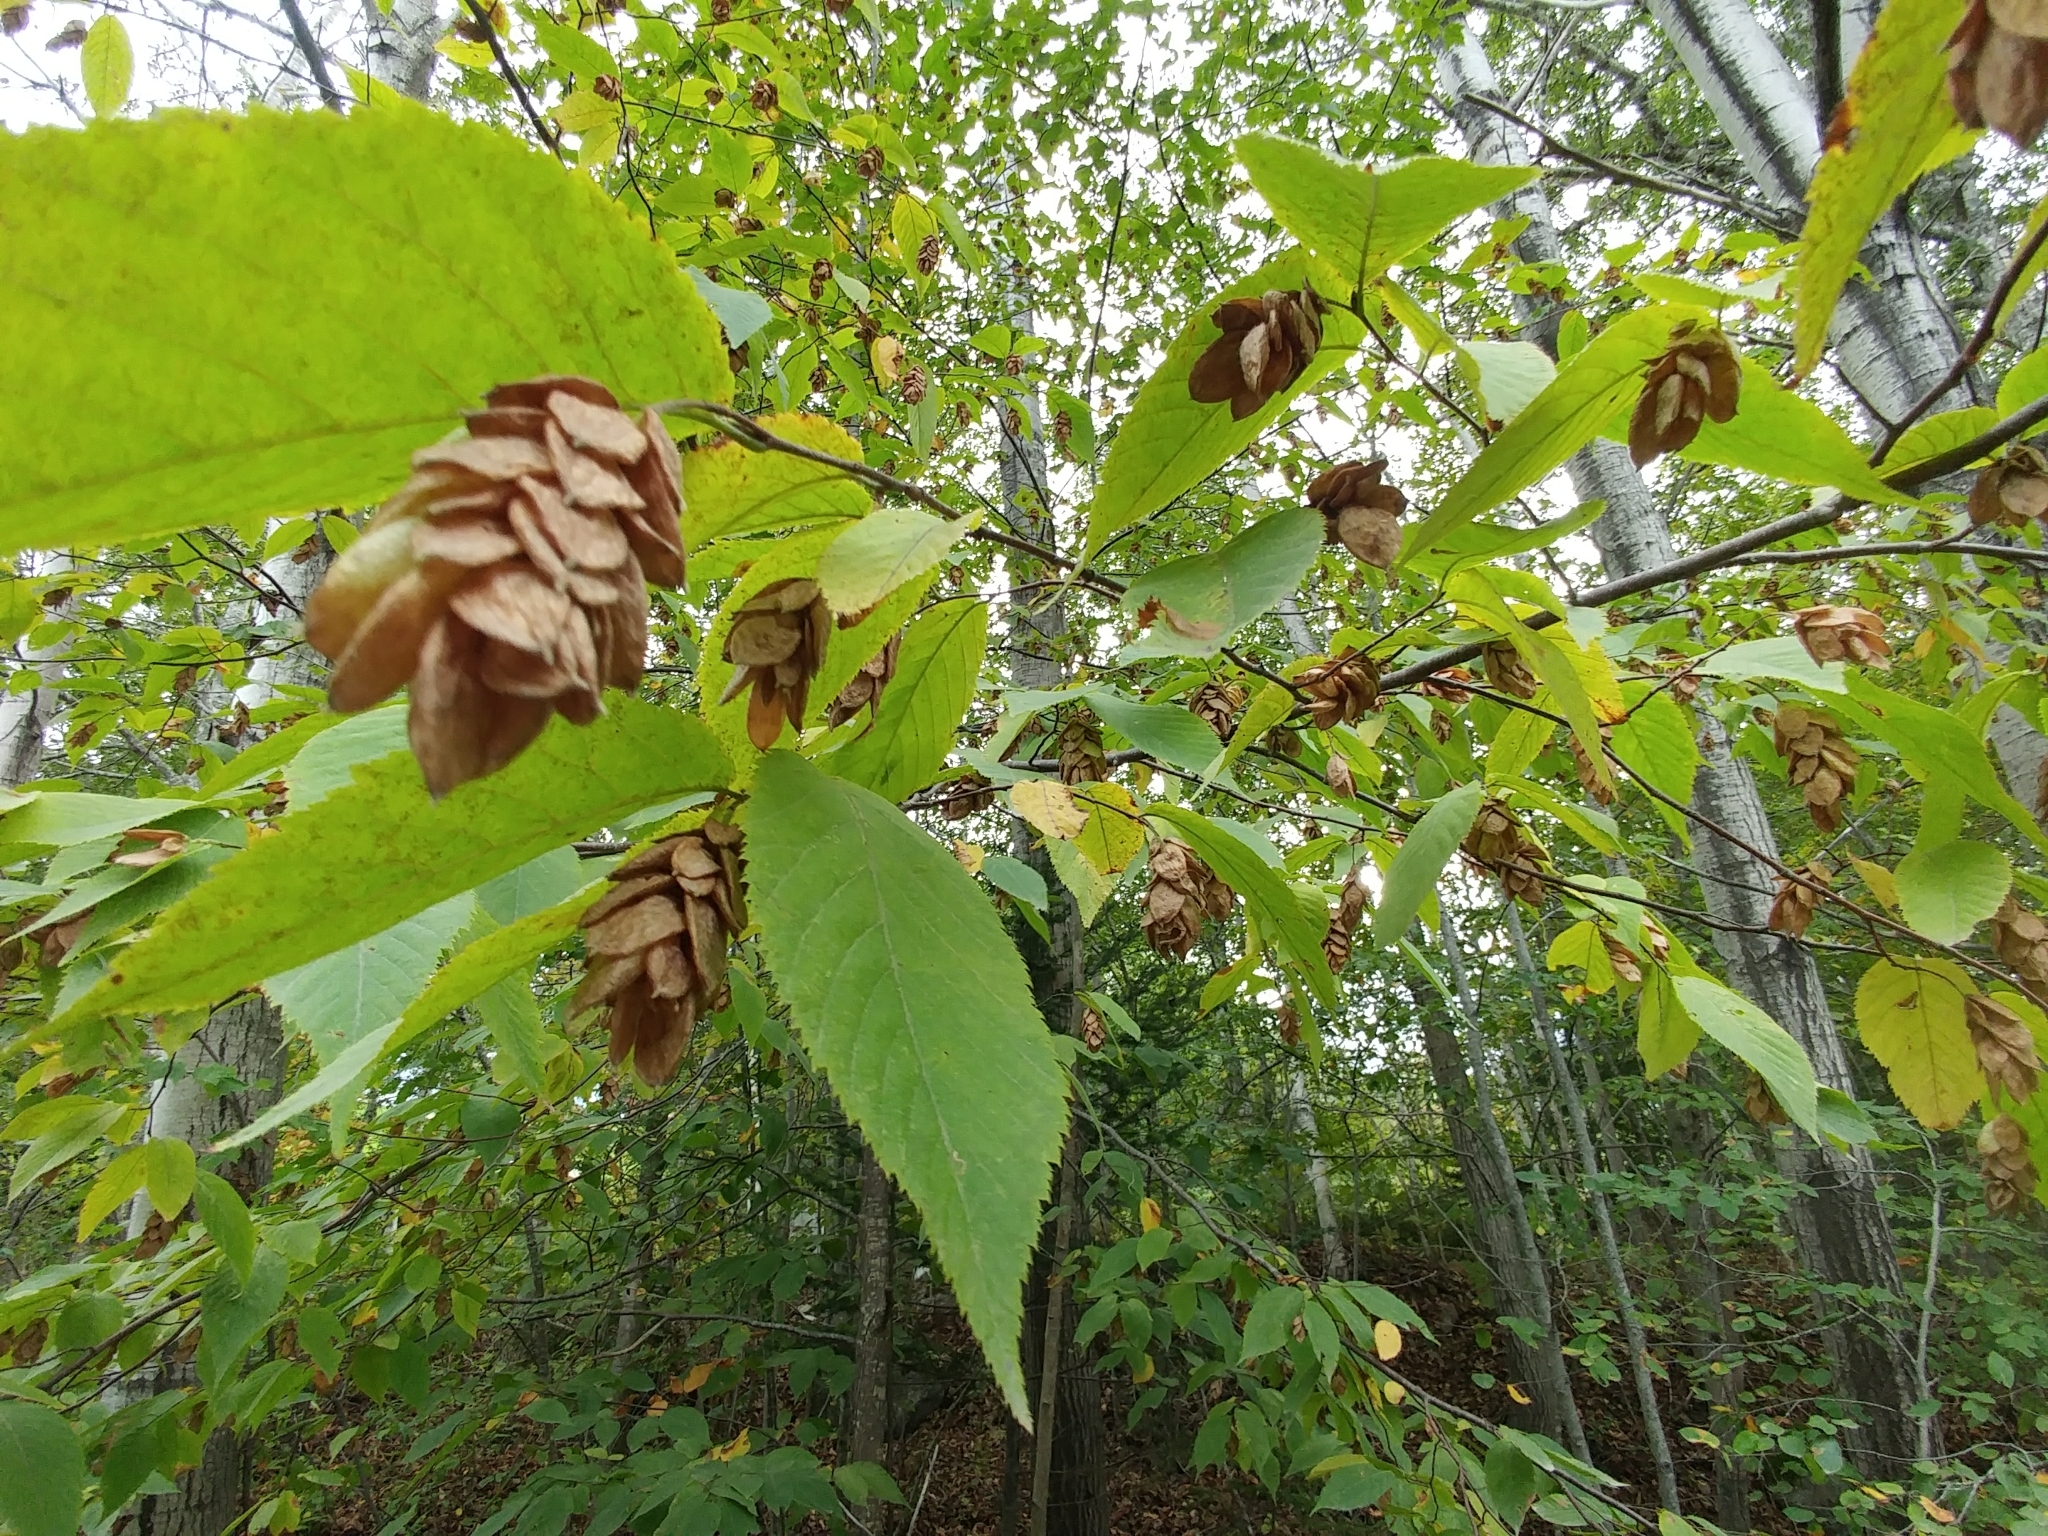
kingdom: Plantae
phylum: Tracheophyta
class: Magnoliopsida
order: Fagales
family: Betulaceae
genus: Ostrya
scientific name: Ostrya virginiana
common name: Ironwood
